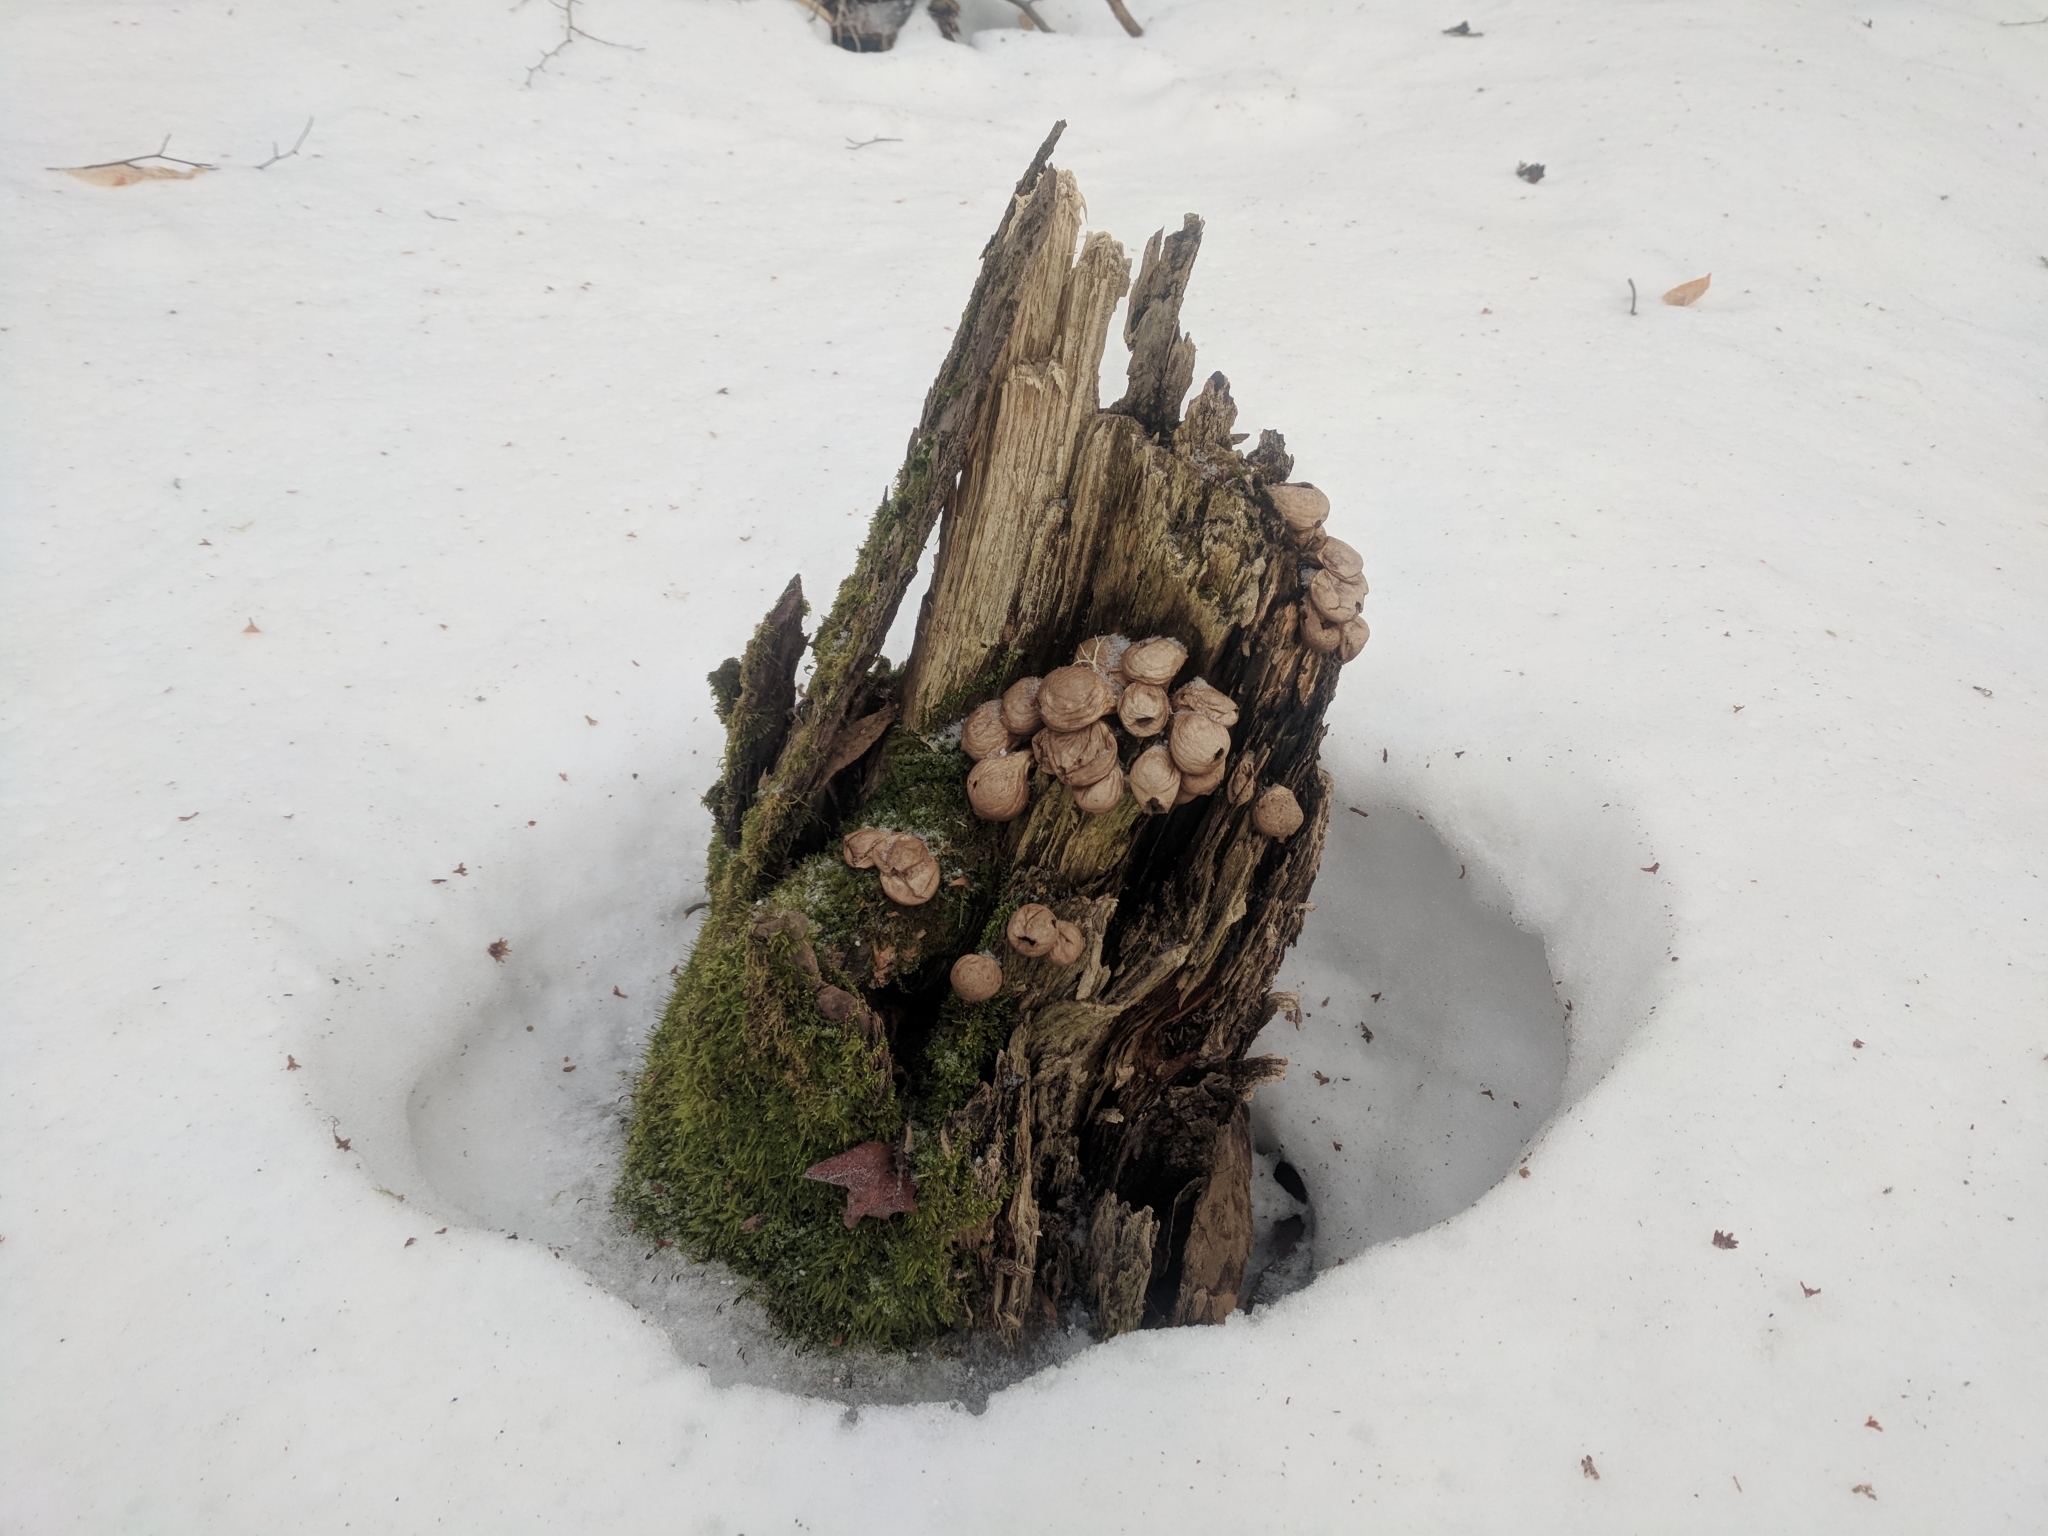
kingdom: Fungi
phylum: Basidiomycota
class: Agaricomycetes
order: Agaricales
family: Lycoperdaceae
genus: Apioperdon
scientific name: Apioperdon pyriforme
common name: Pear-shaped puffball
